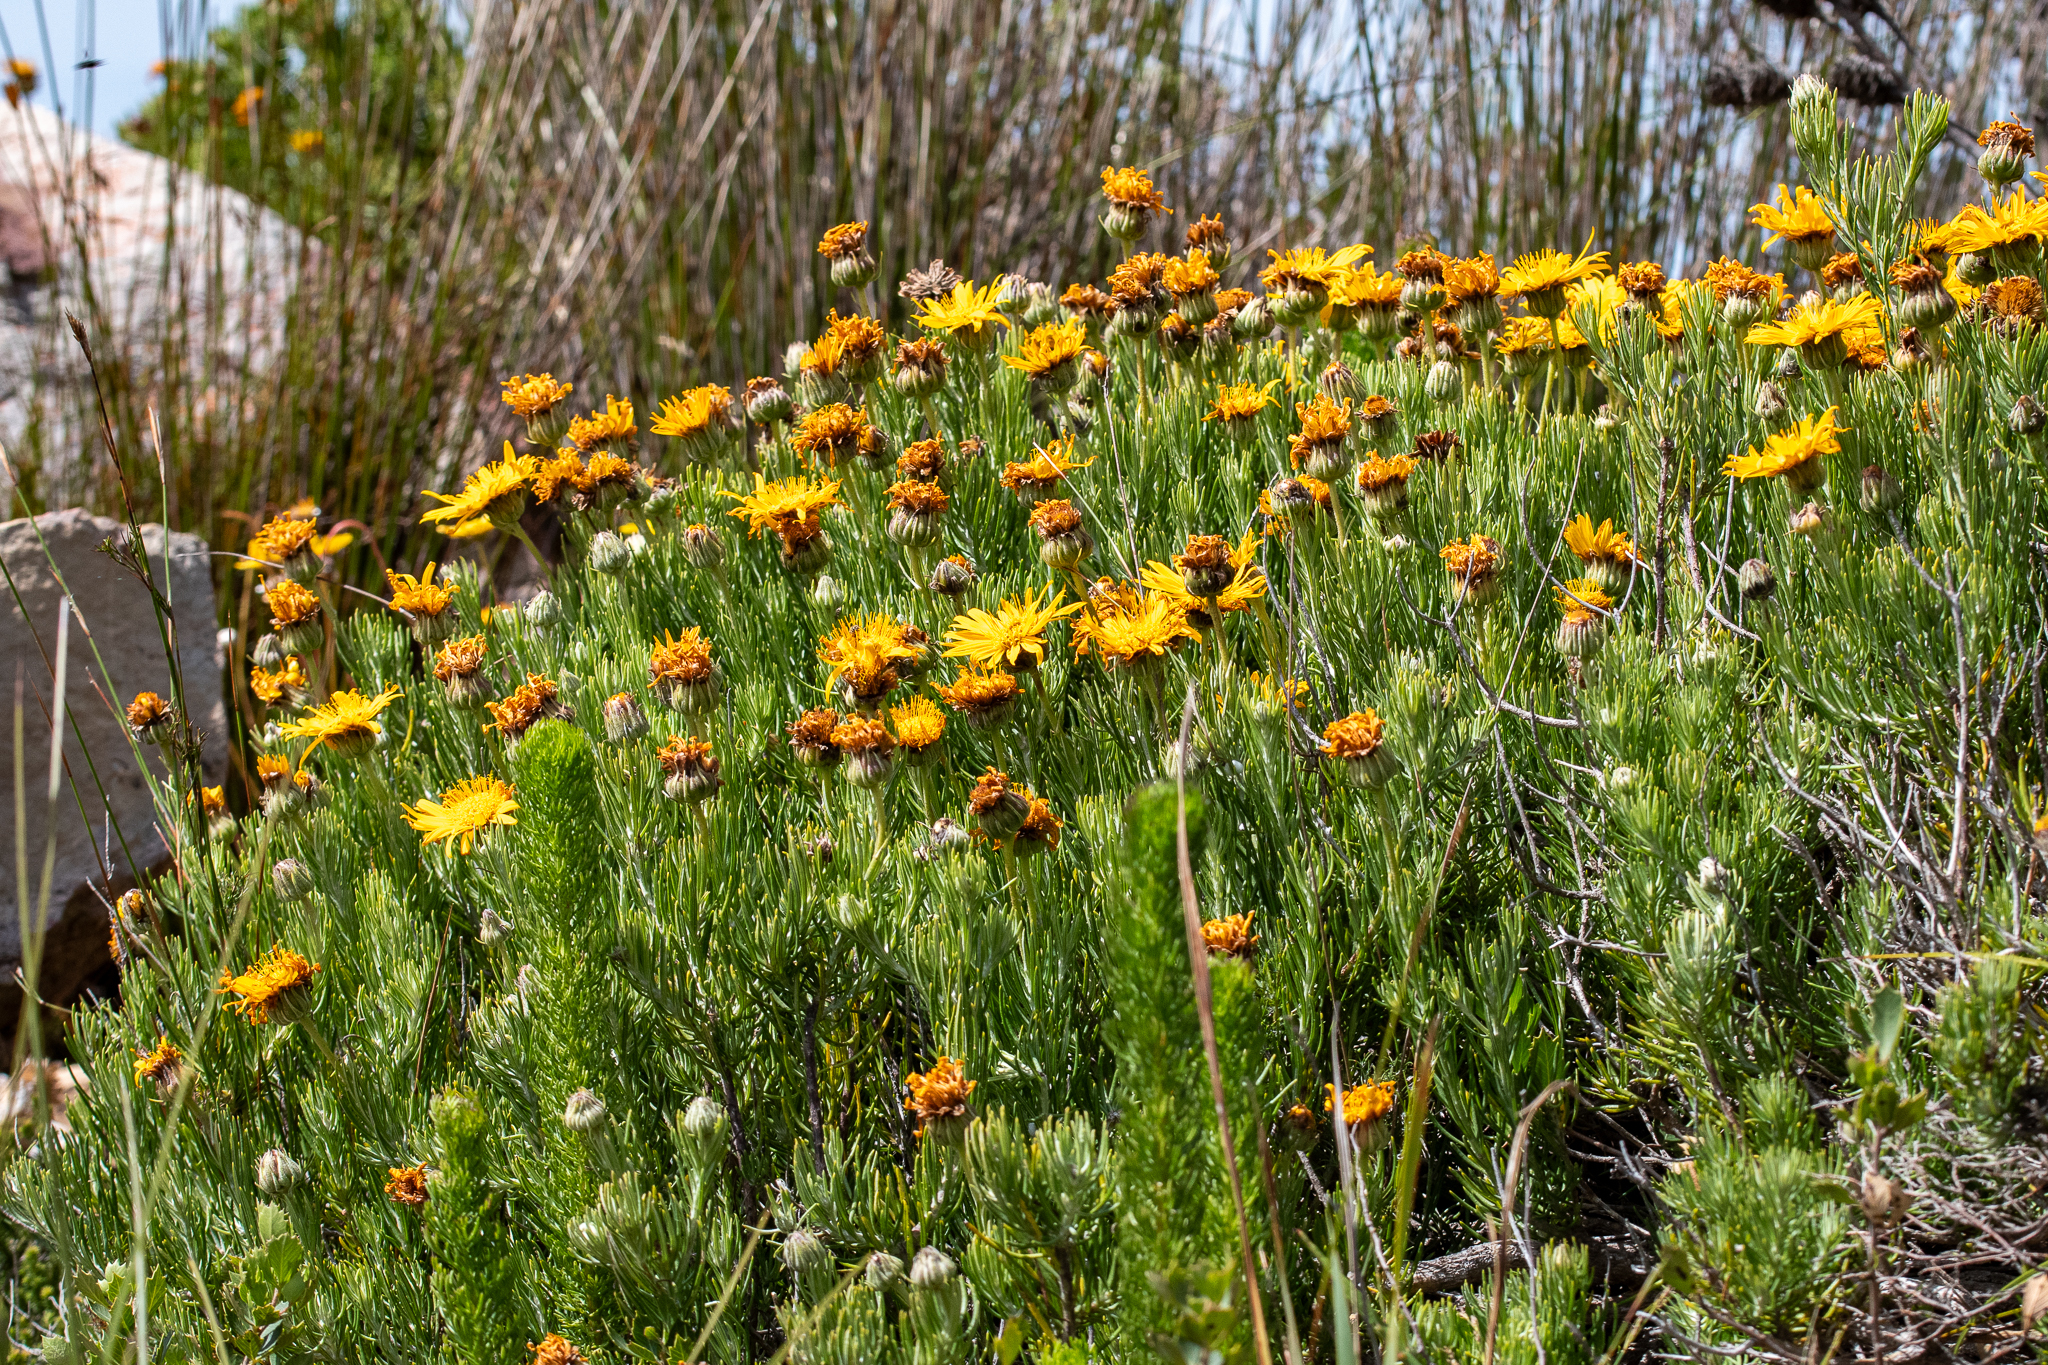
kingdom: Plantae
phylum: Tracheophyta
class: Magnoliopsida
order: Asterales
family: Asteraceae
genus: Heterolepis
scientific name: Heterolepis aliena
